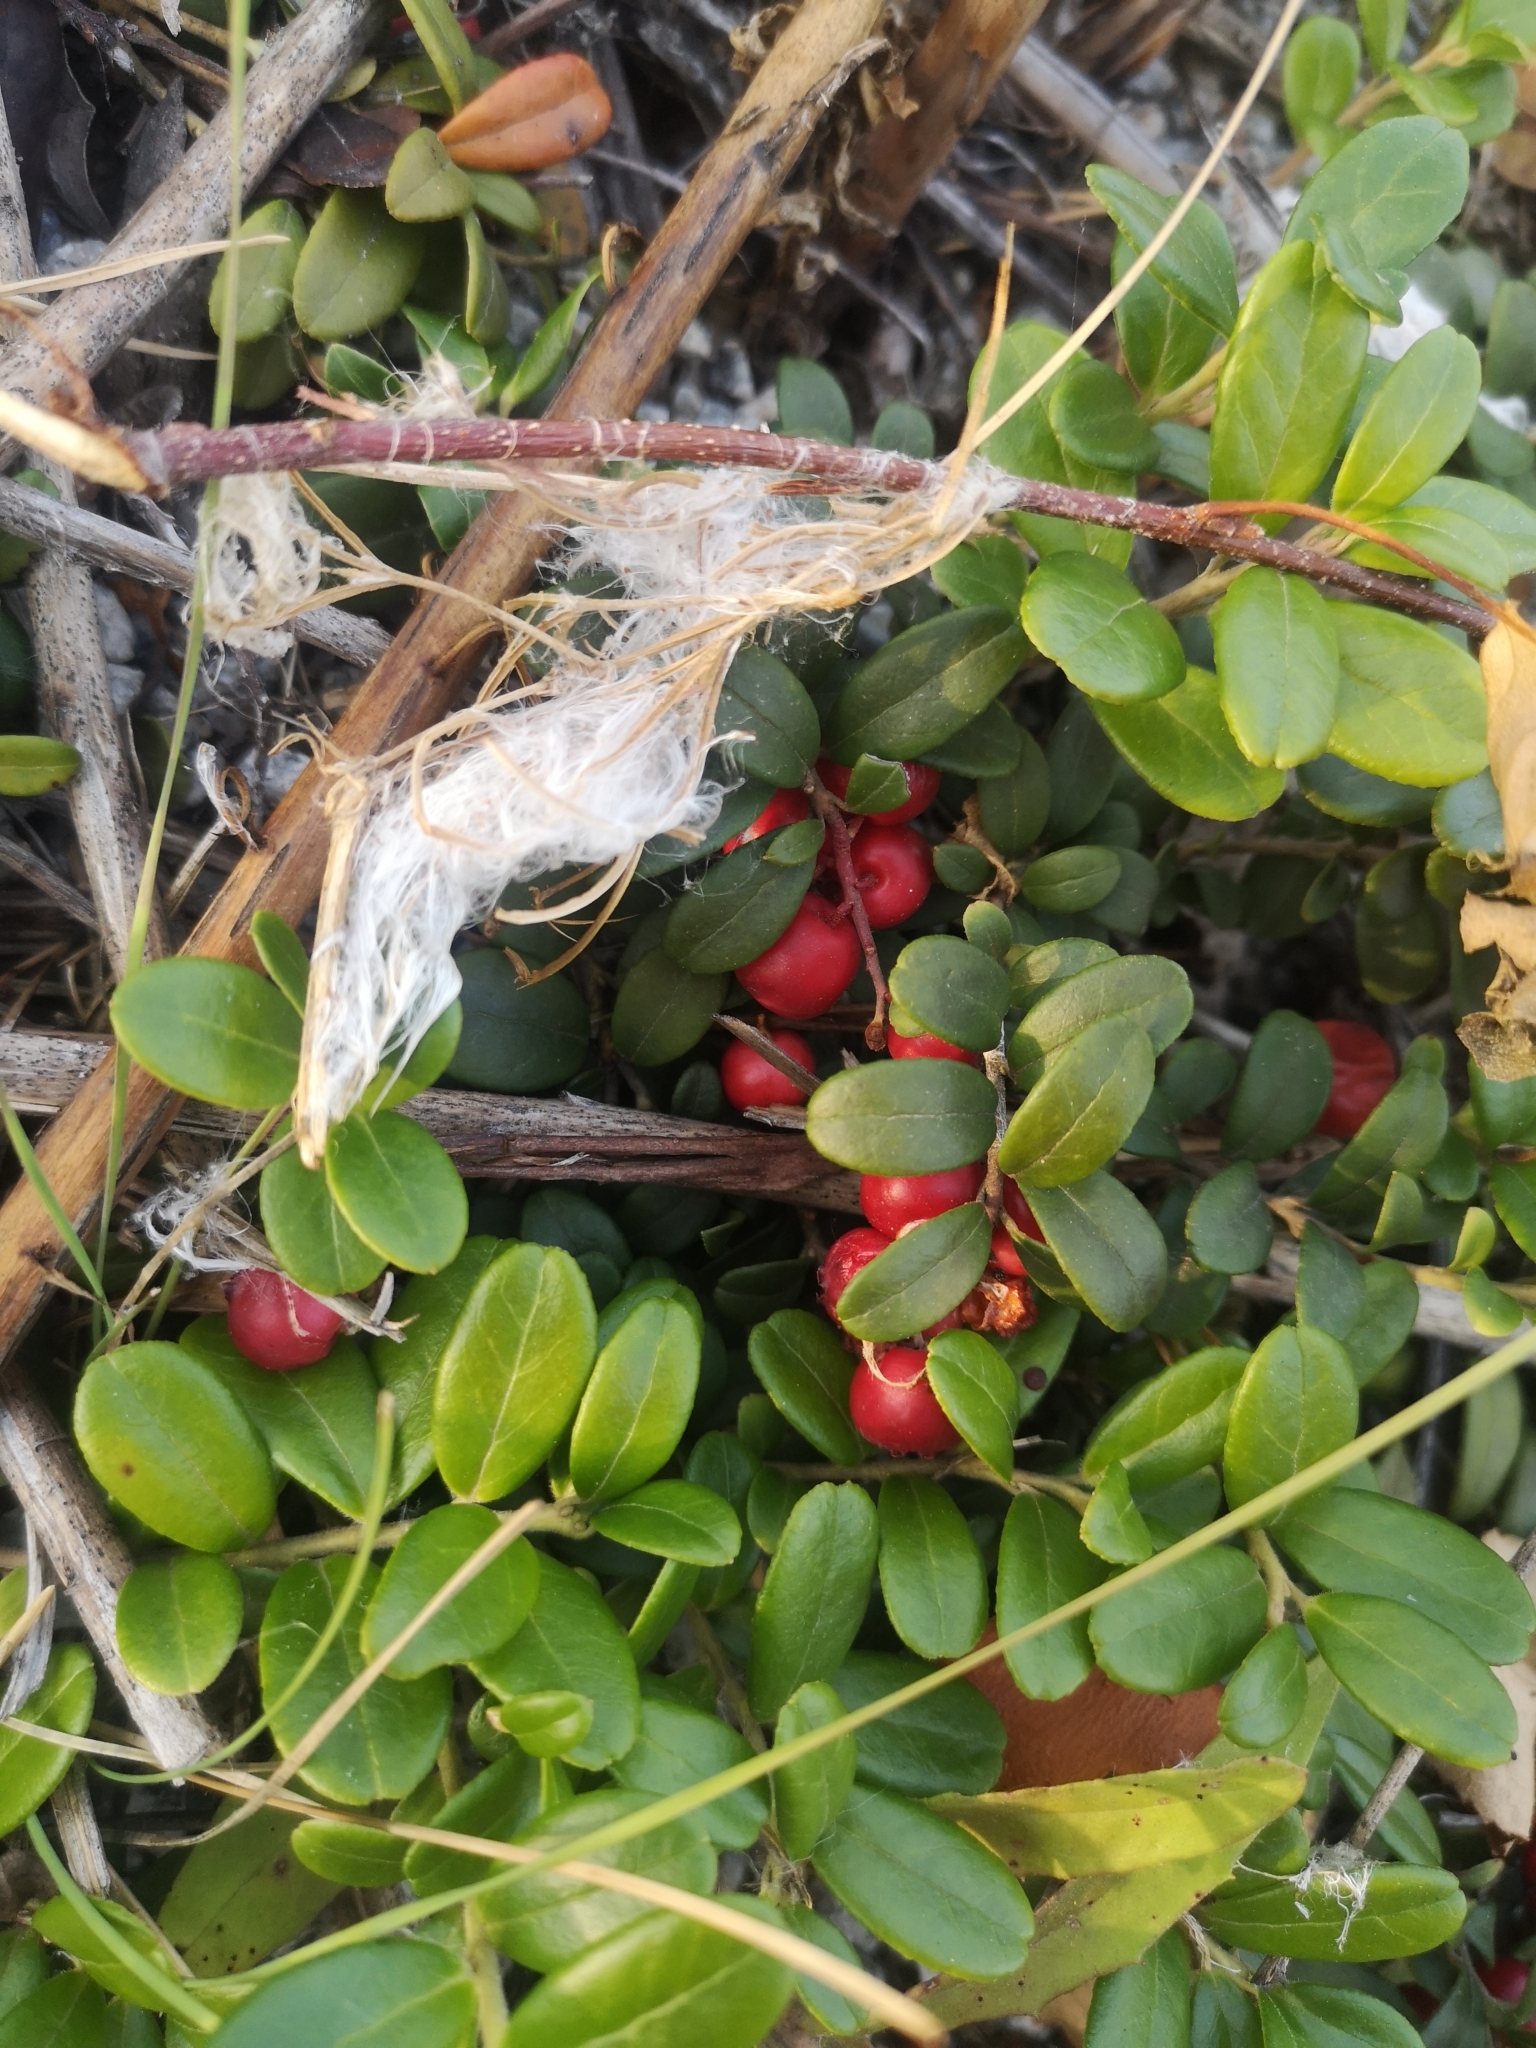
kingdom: Plantae
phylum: Tracheophyta
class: Magnoliopsida
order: Ericales
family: Ericaceae
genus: Vaccinium
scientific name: Vaccinium vitis-idaea
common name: Cowberry
